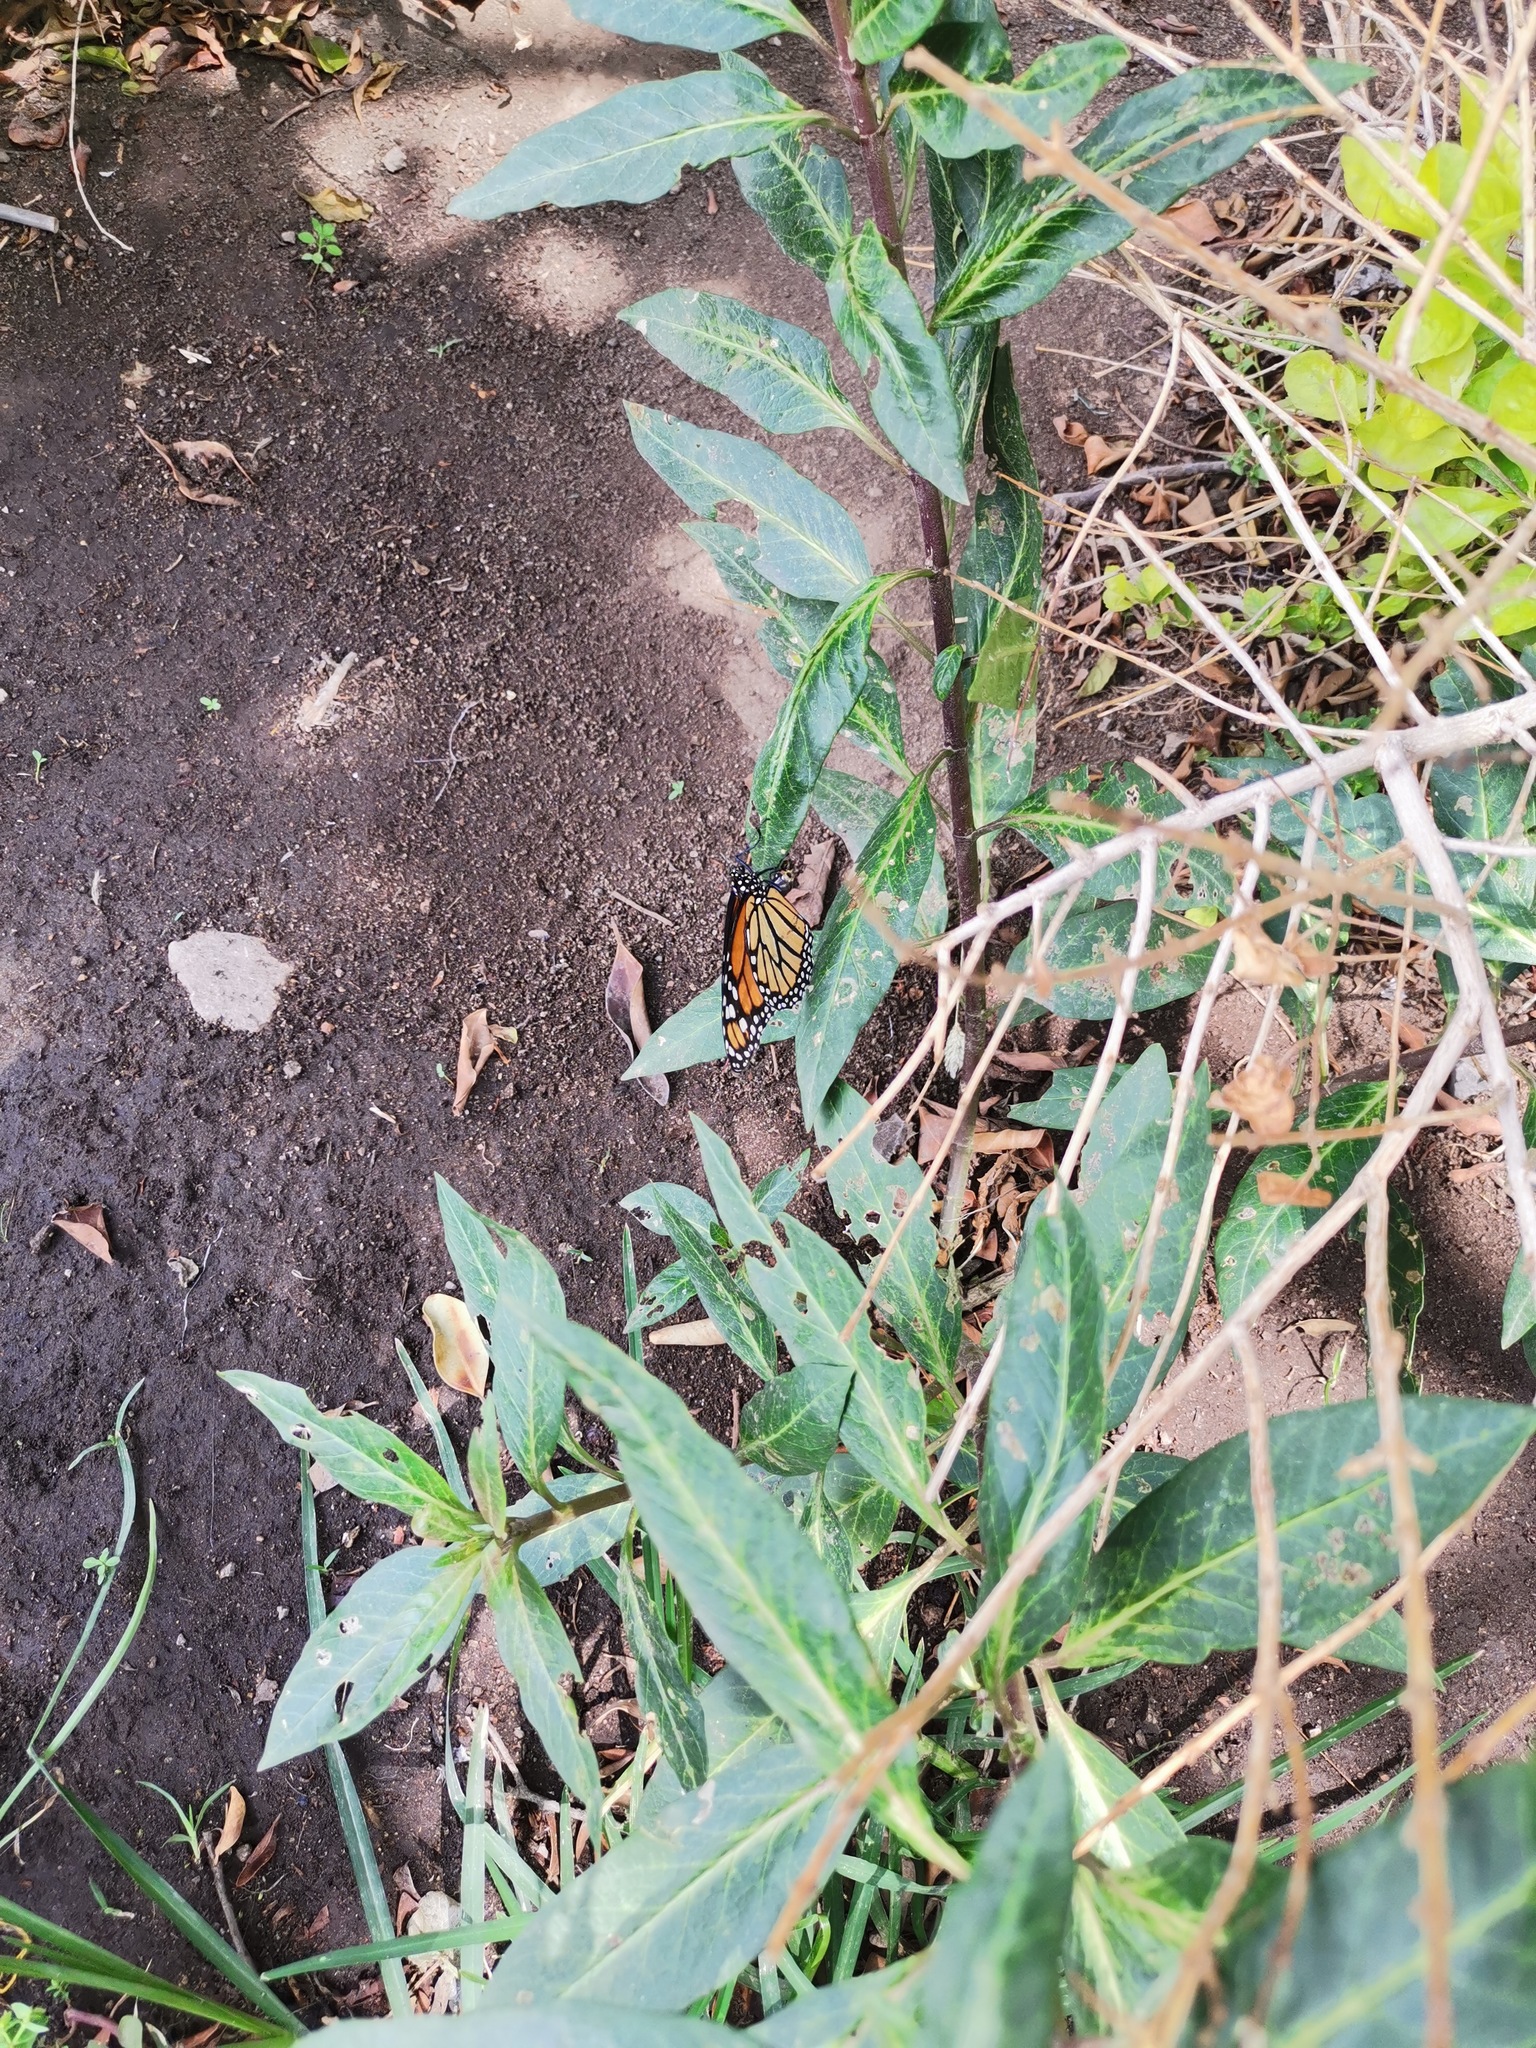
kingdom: Animalia
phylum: Arthropoda
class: Insecta
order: Lepidoptera
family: Nymphalidae
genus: Danaus
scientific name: Danaus plexippus
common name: Monarch
